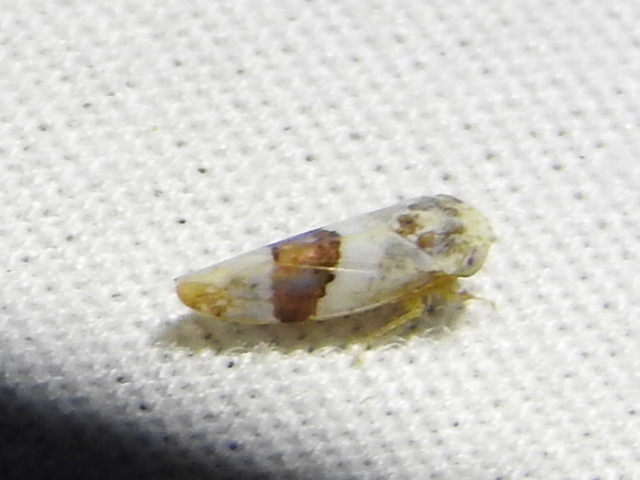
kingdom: Animalia
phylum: Arthropoda
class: Insecta
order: Hemiptera
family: Cicadellidae
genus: Norvellina
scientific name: Norvellina seminuda
